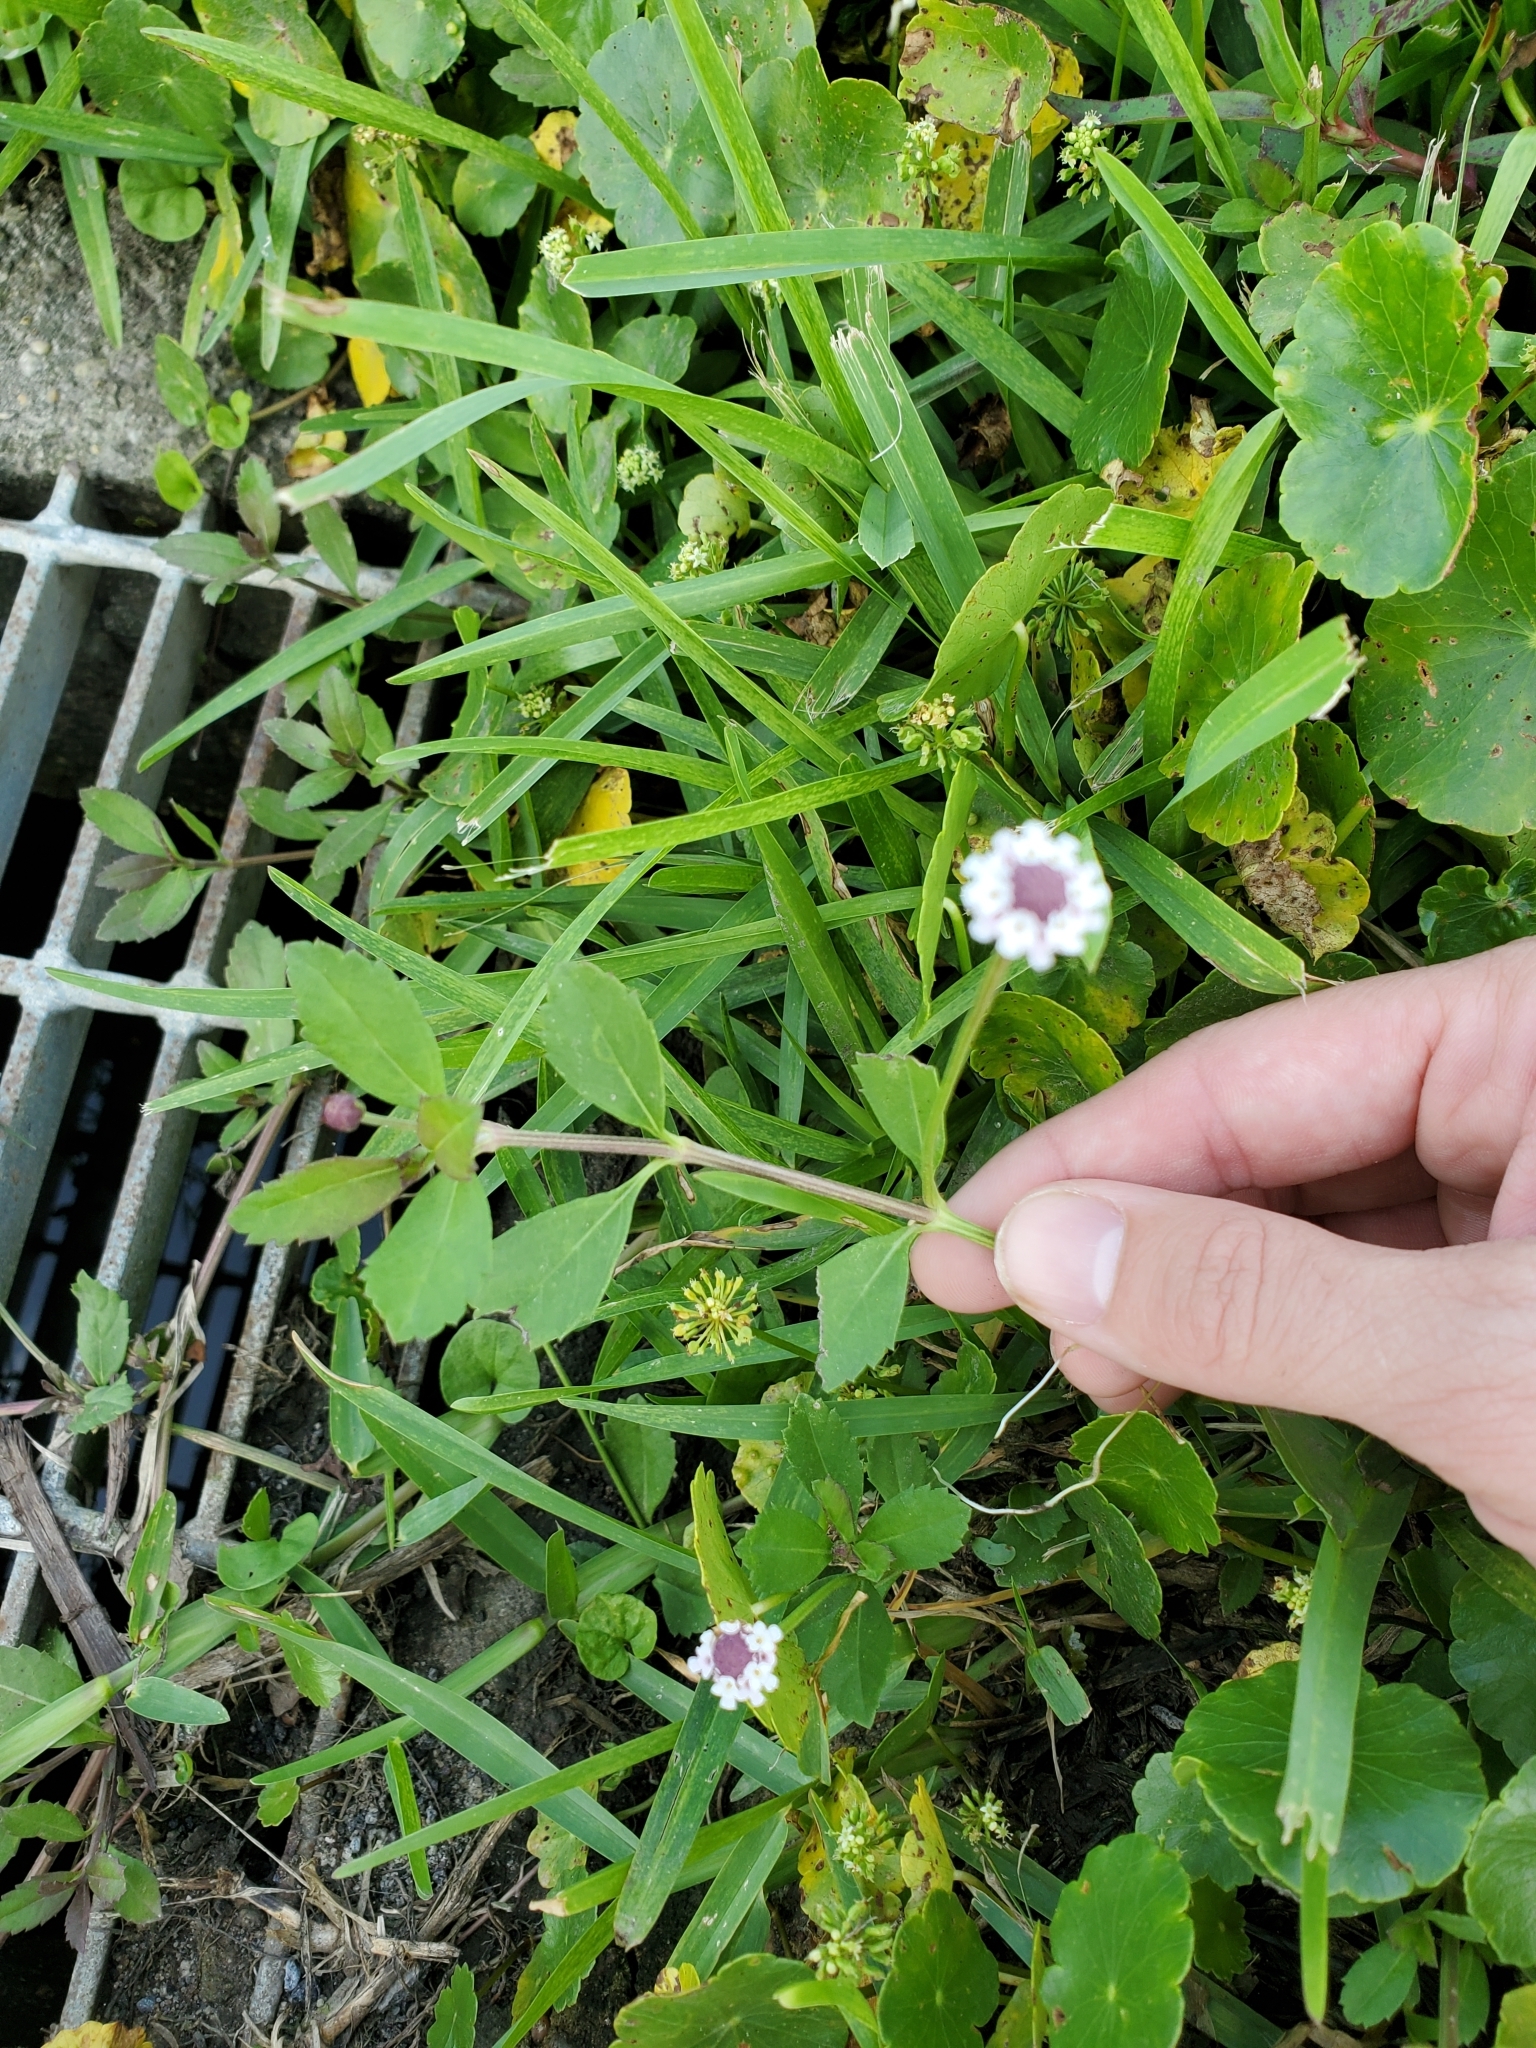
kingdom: Plantae
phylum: Tracheophyta
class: Magnoliopsida
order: Lamiales
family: Verbenaceae
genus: Phyla
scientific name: Phyla nodiflora
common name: Frogfruit
